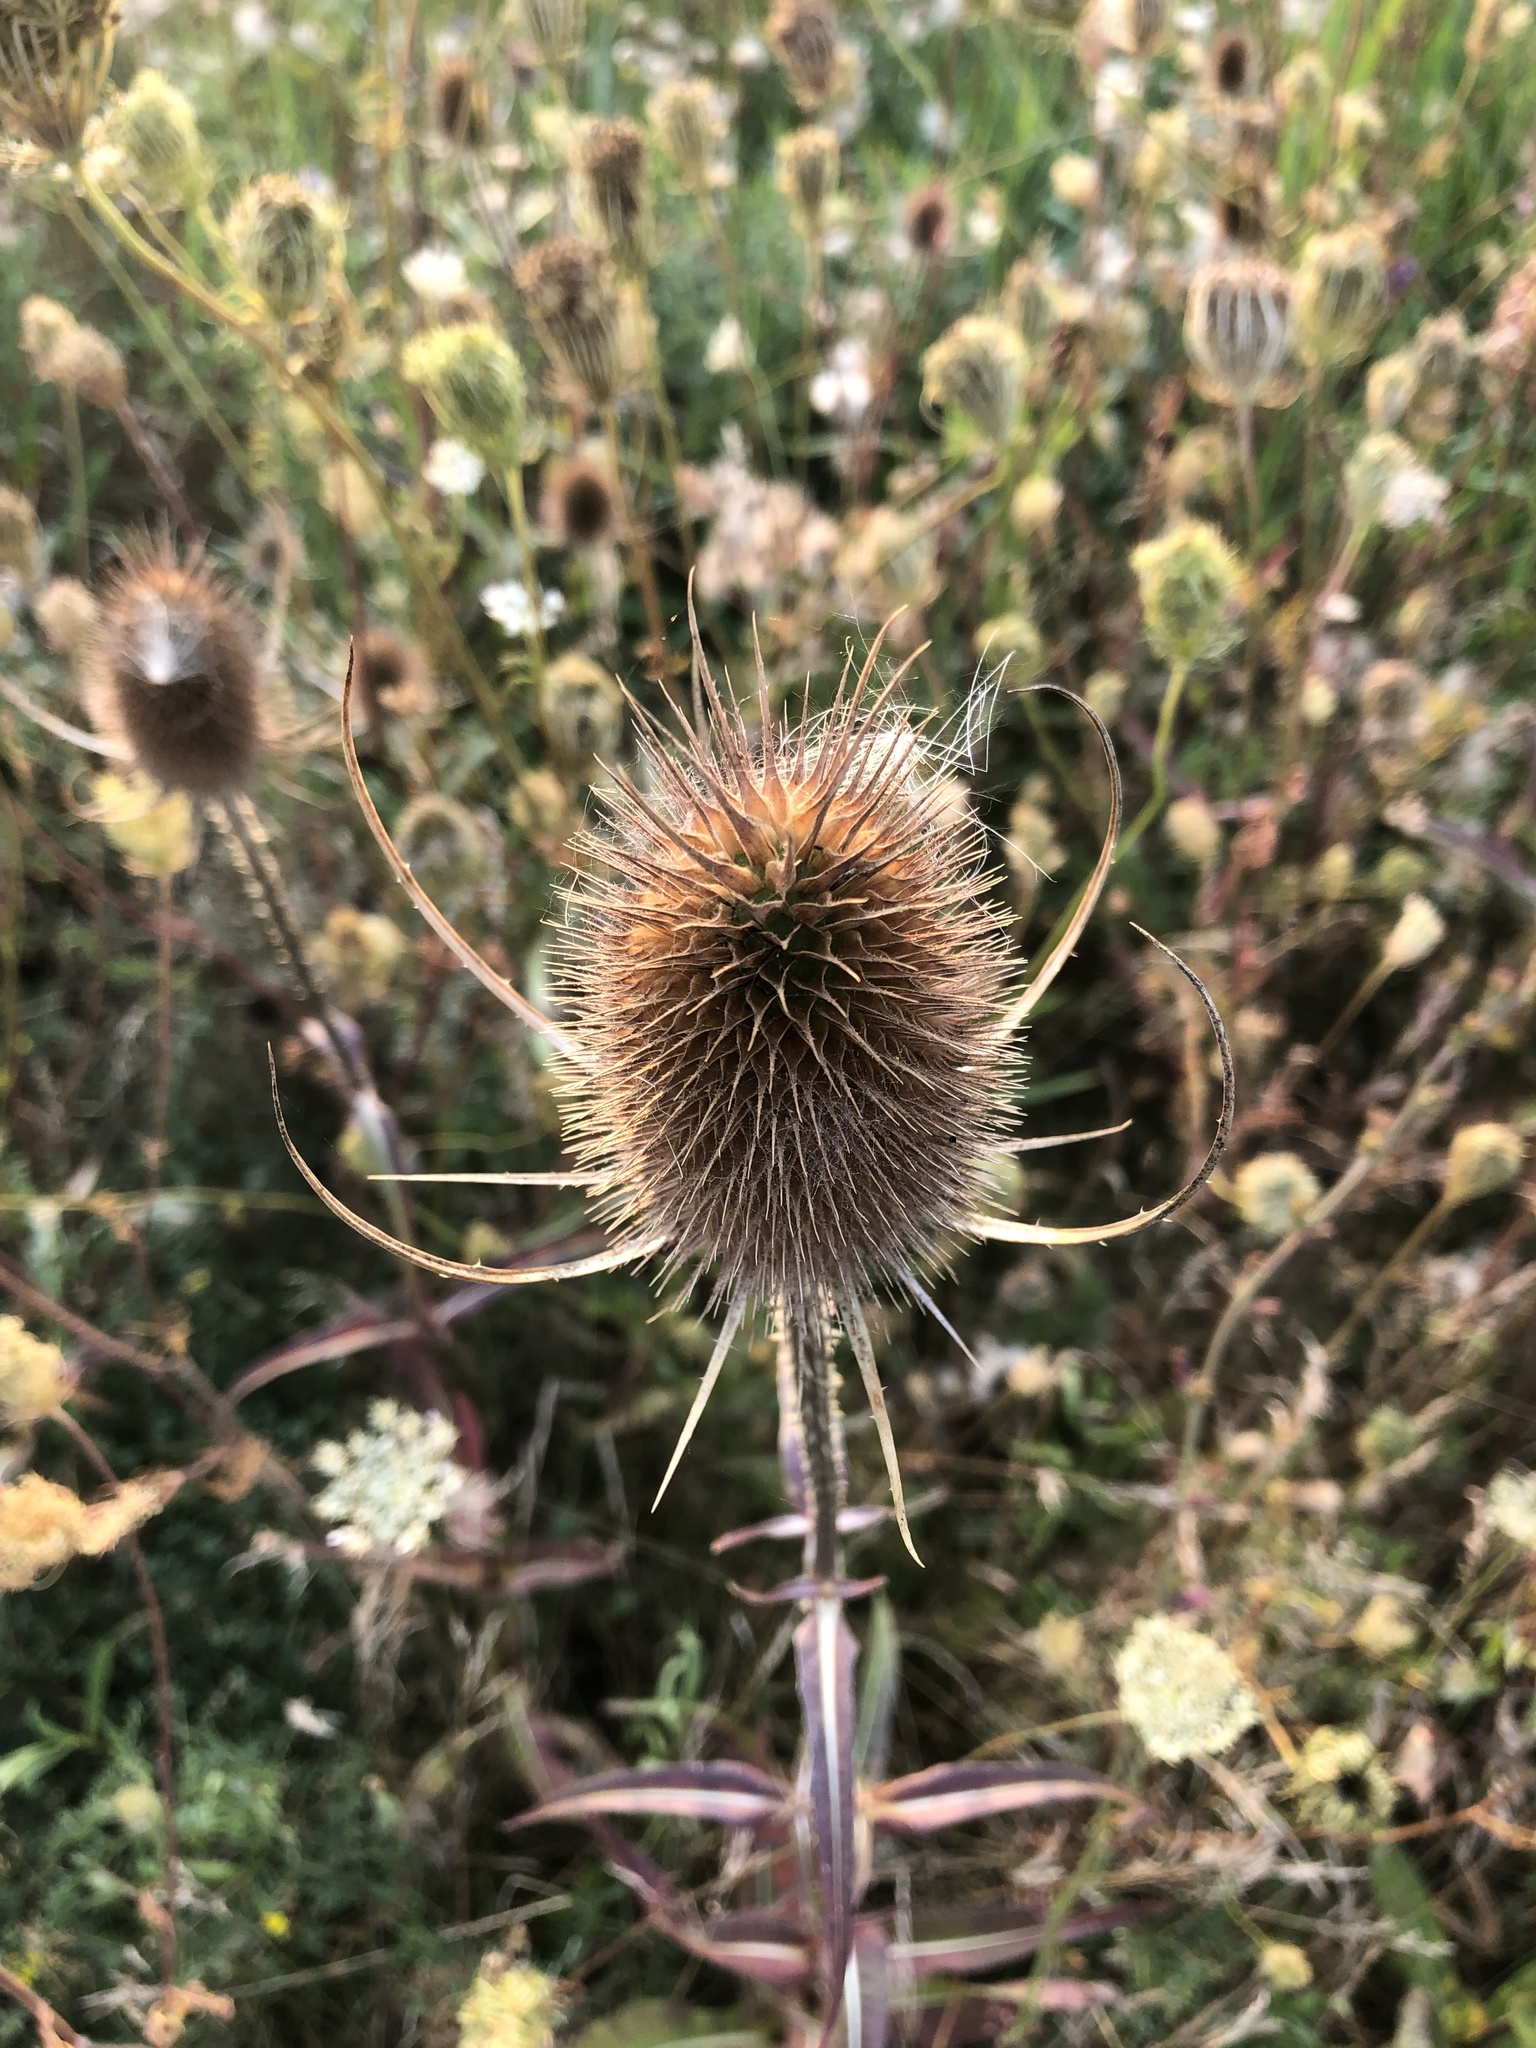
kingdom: Plantae
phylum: Tracheophyta
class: Magnoliopsida
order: Dipsacales
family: Caprifoliaceae
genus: Dipsacus
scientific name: Dipsacus fullonum
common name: Teasel
